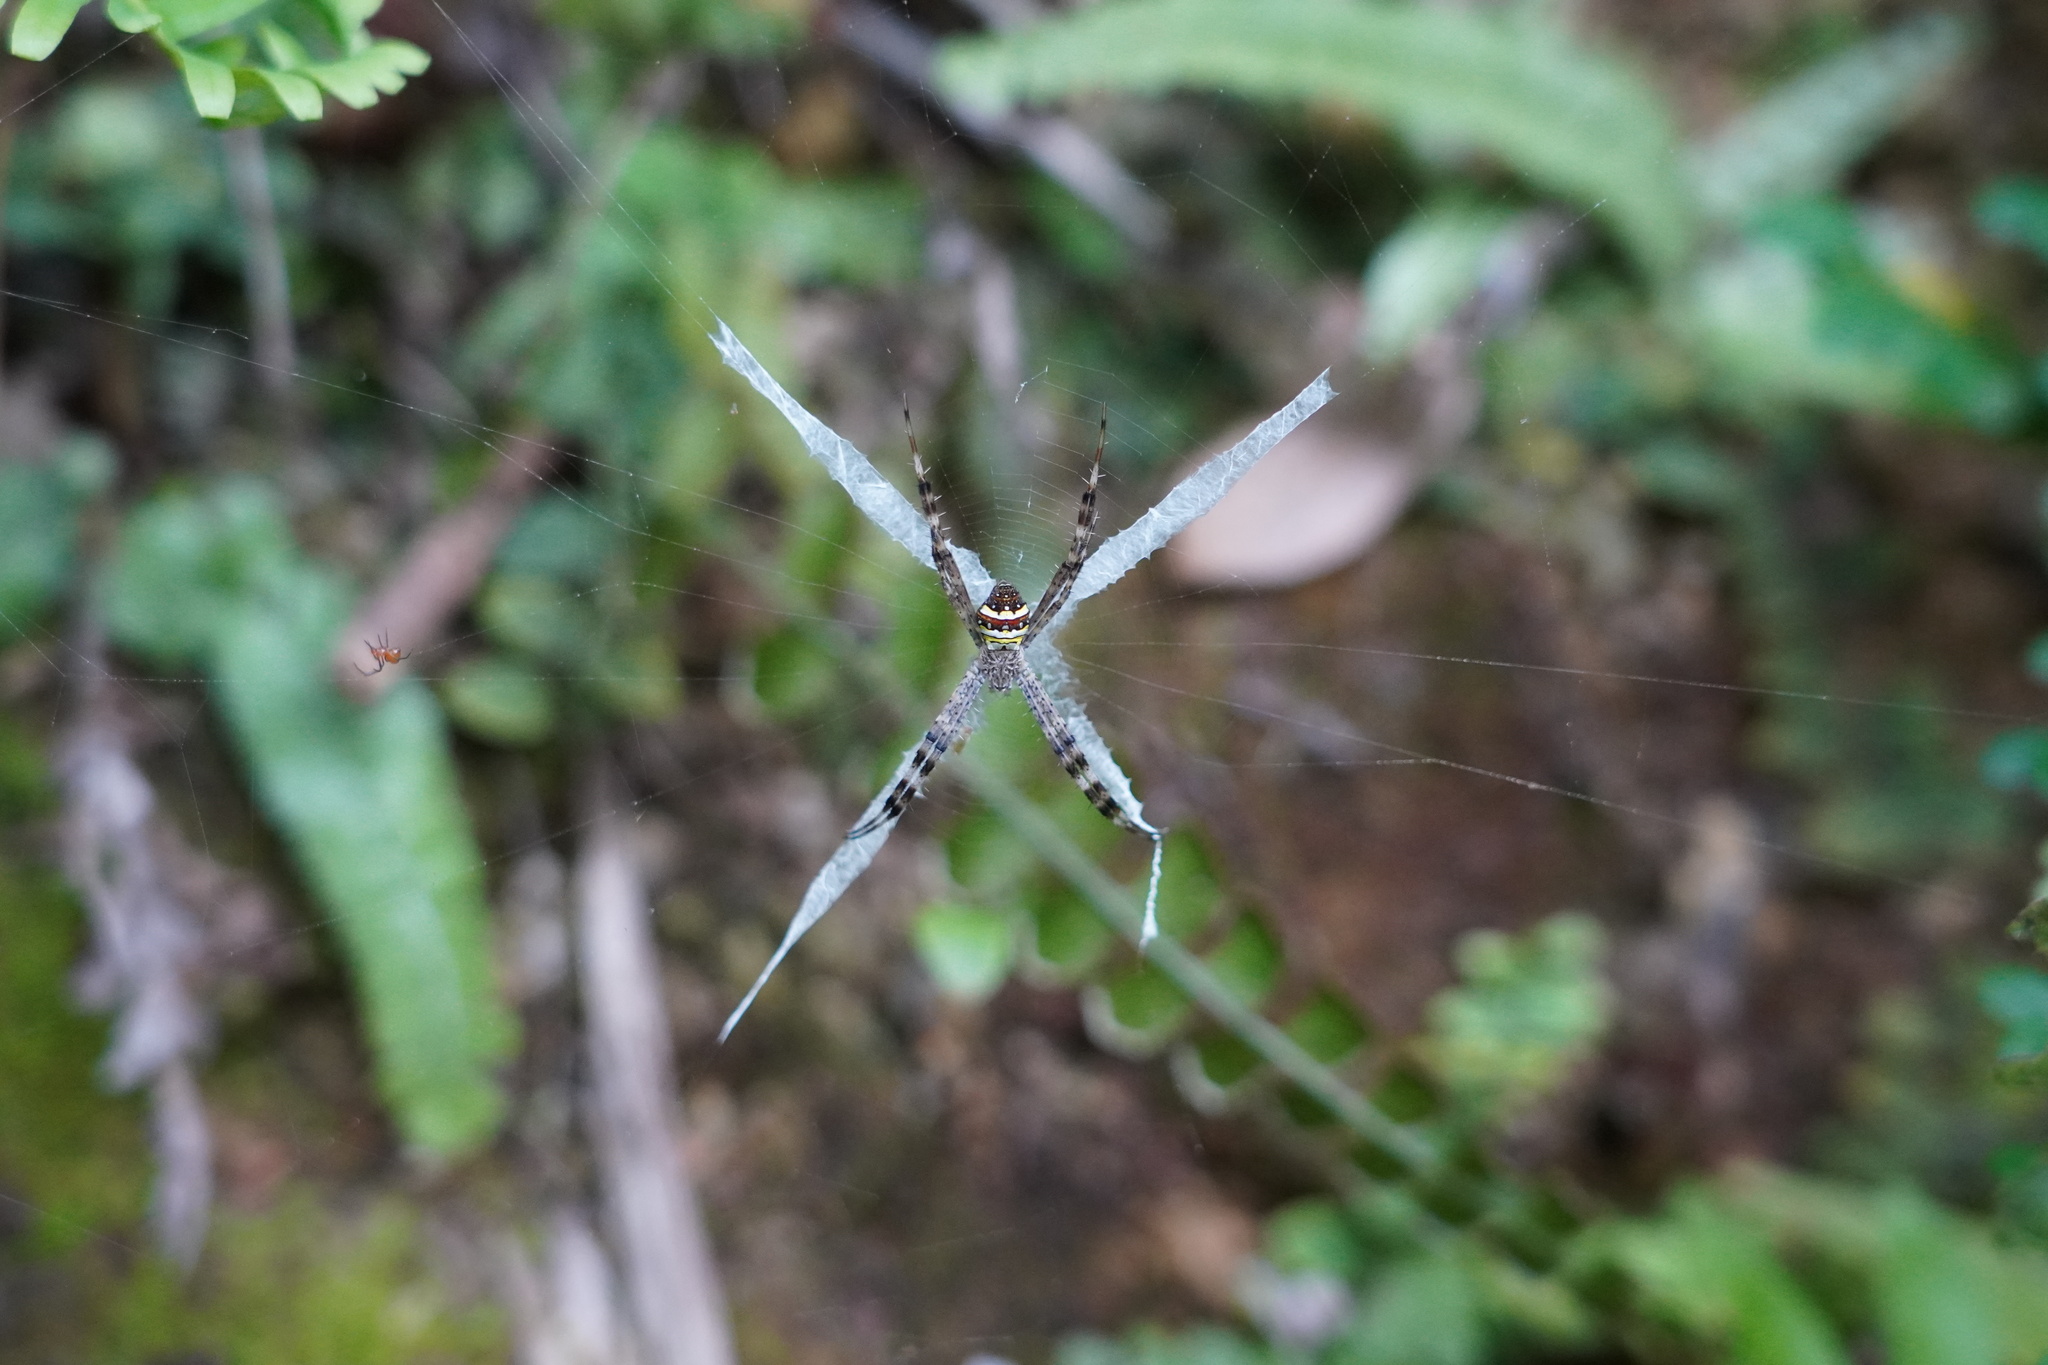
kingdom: Animalia
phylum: Arthropoda
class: Arachnida
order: Araneae
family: Araneidae
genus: Argiope
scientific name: Argiope minuta
